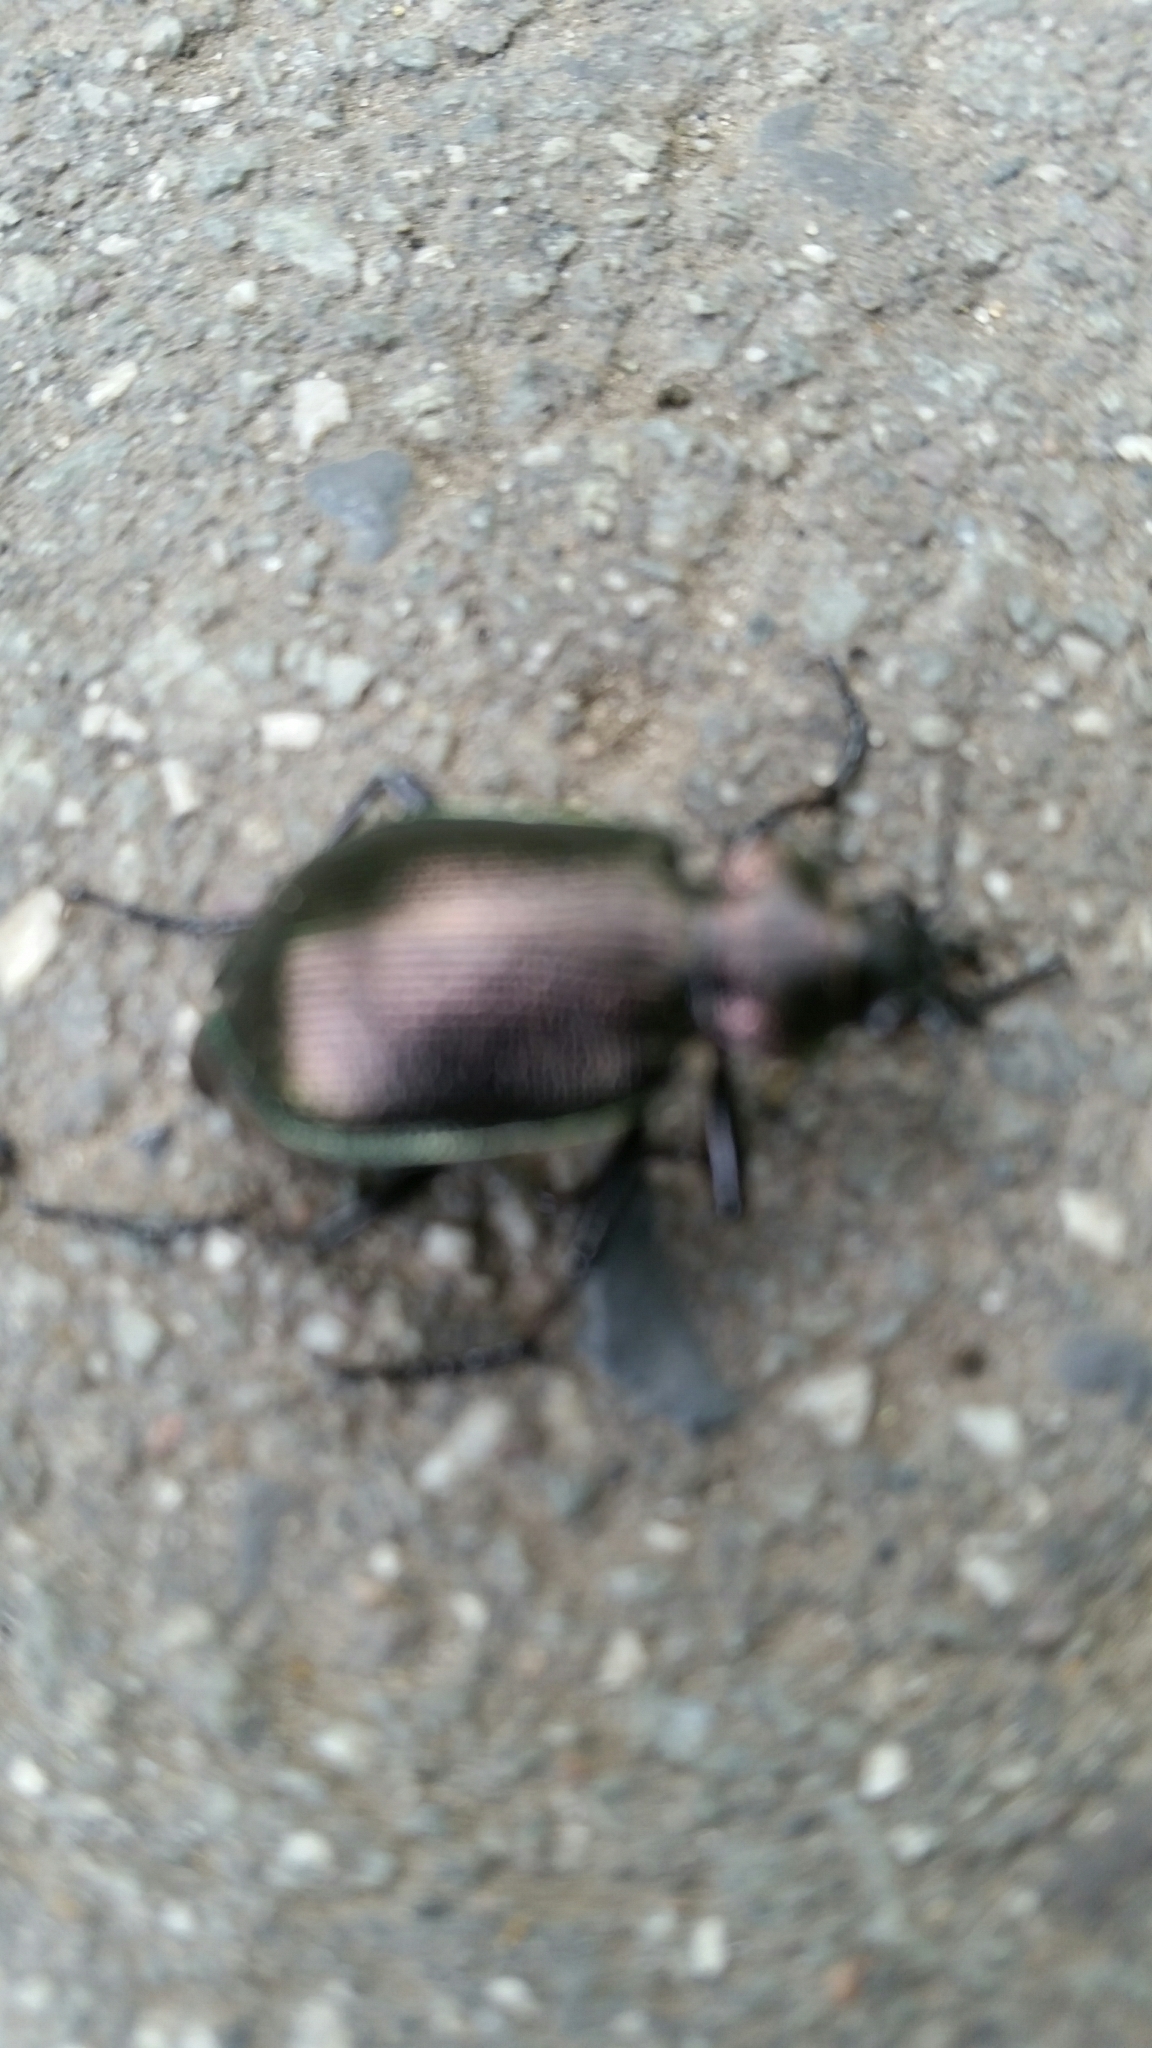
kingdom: Animalia
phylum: Arthropoda
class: Insecta
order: Coleoptera
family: Carabidae
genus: Calosoma
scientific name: Calosoma inquisitor
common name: Caterpillar-hunter
